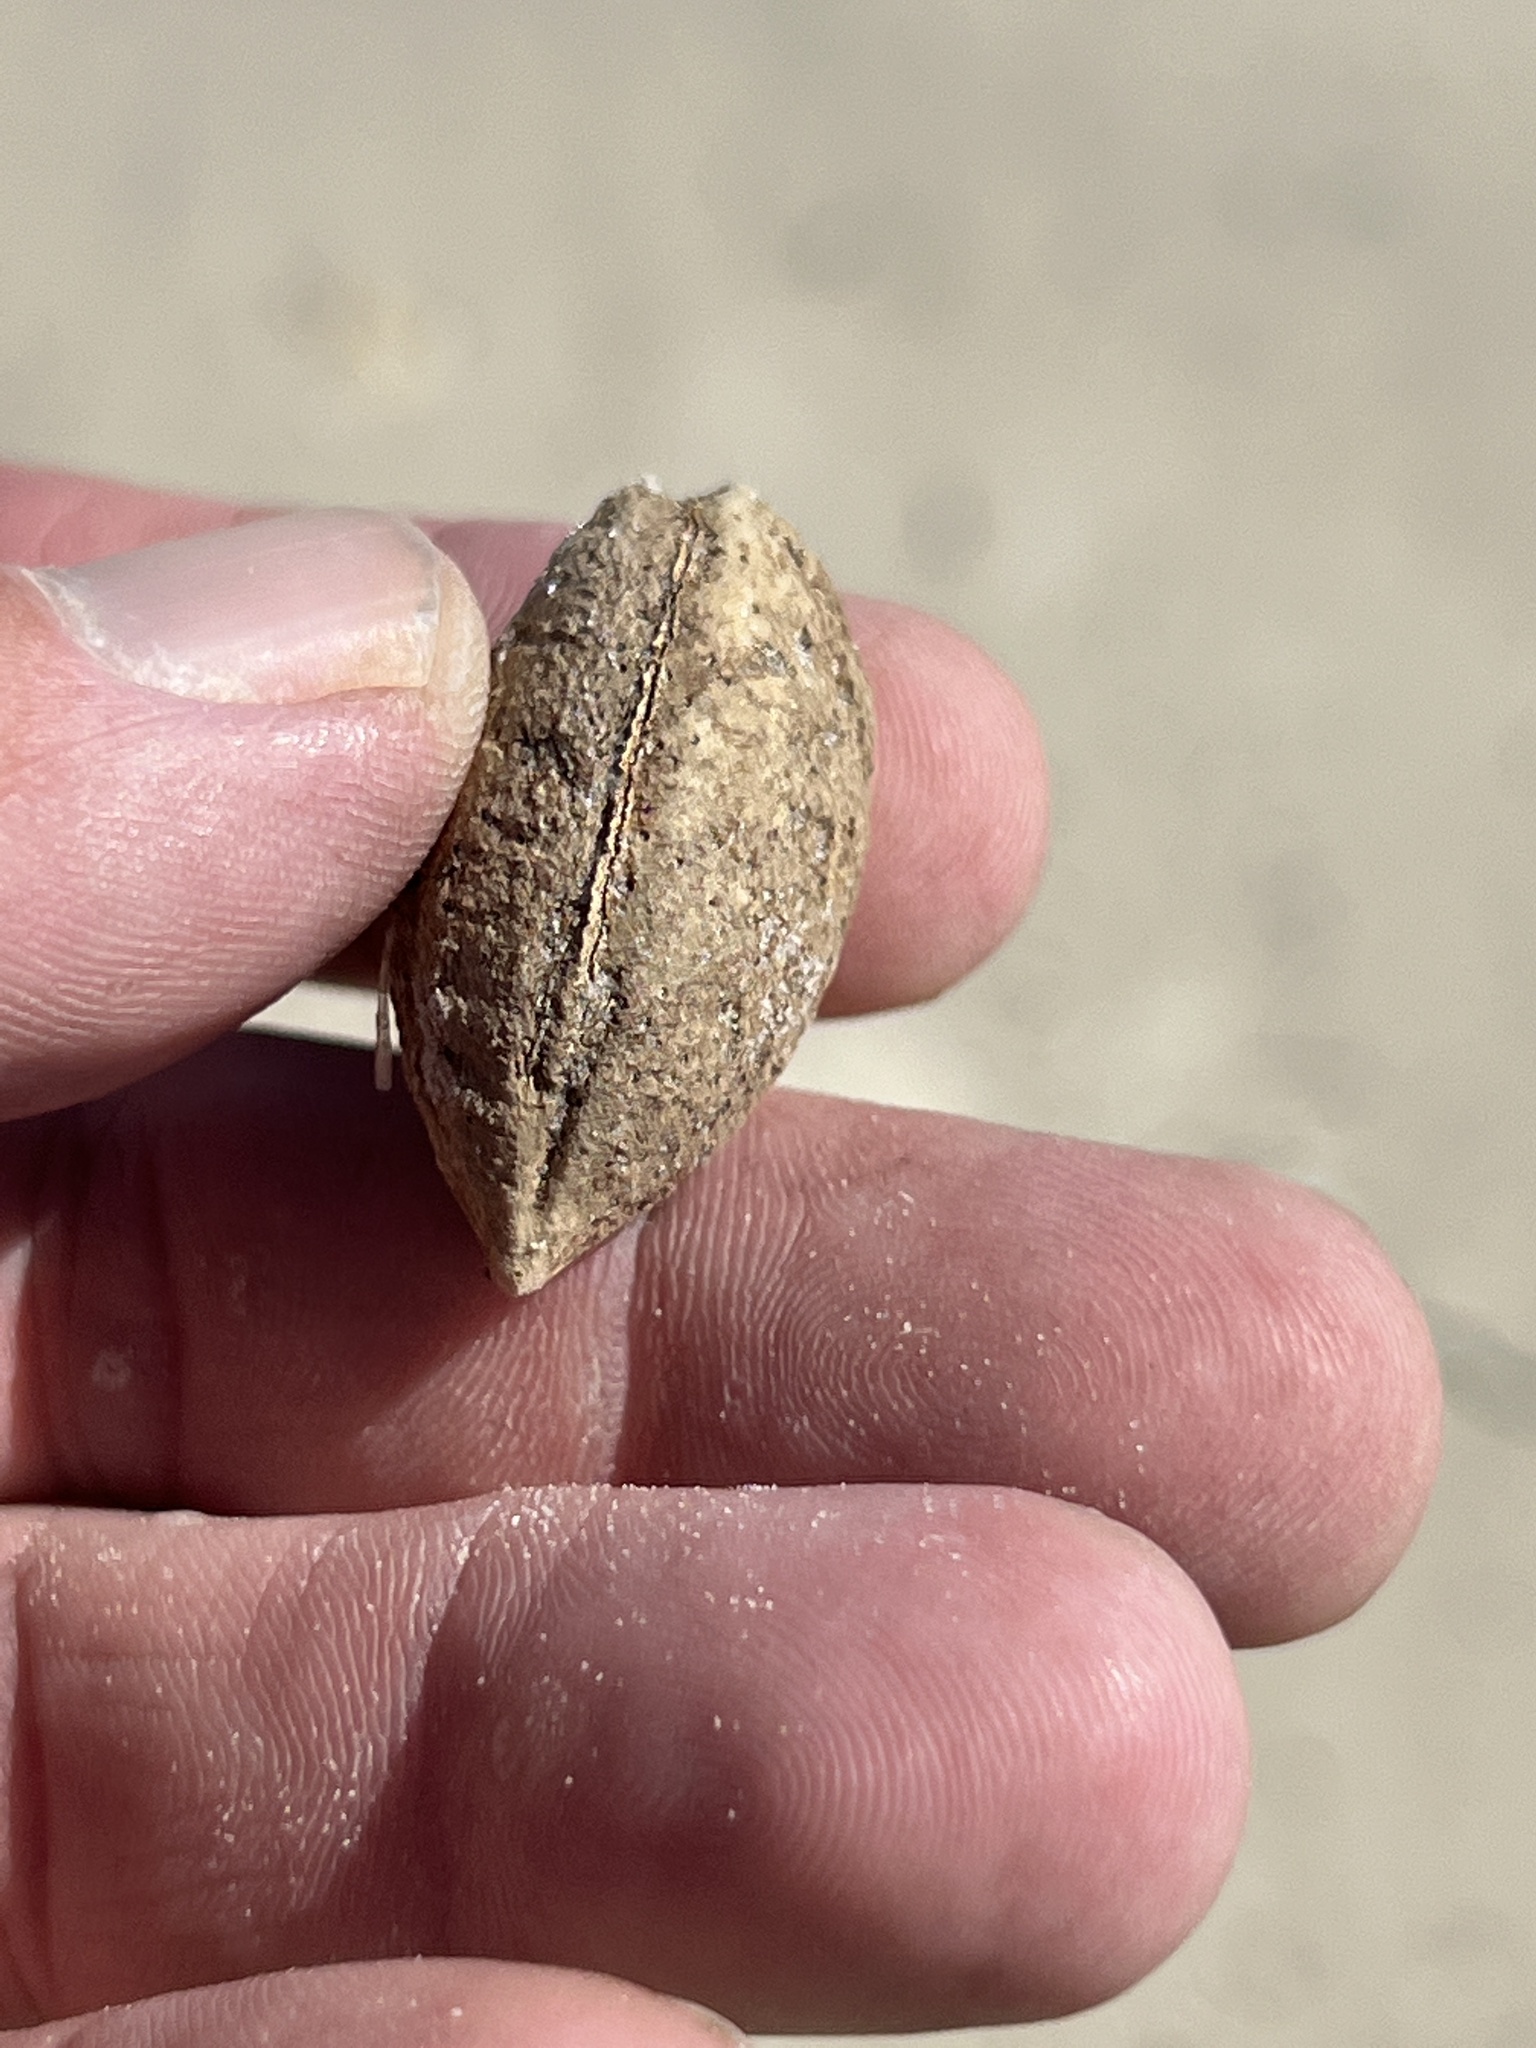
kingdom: Plantae
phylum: Tracheophyta
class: Magnoliopsida
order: Myrtales
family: Combretaceae
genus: Terminalia
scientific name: Terminalia catappa
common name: Tropical almond
